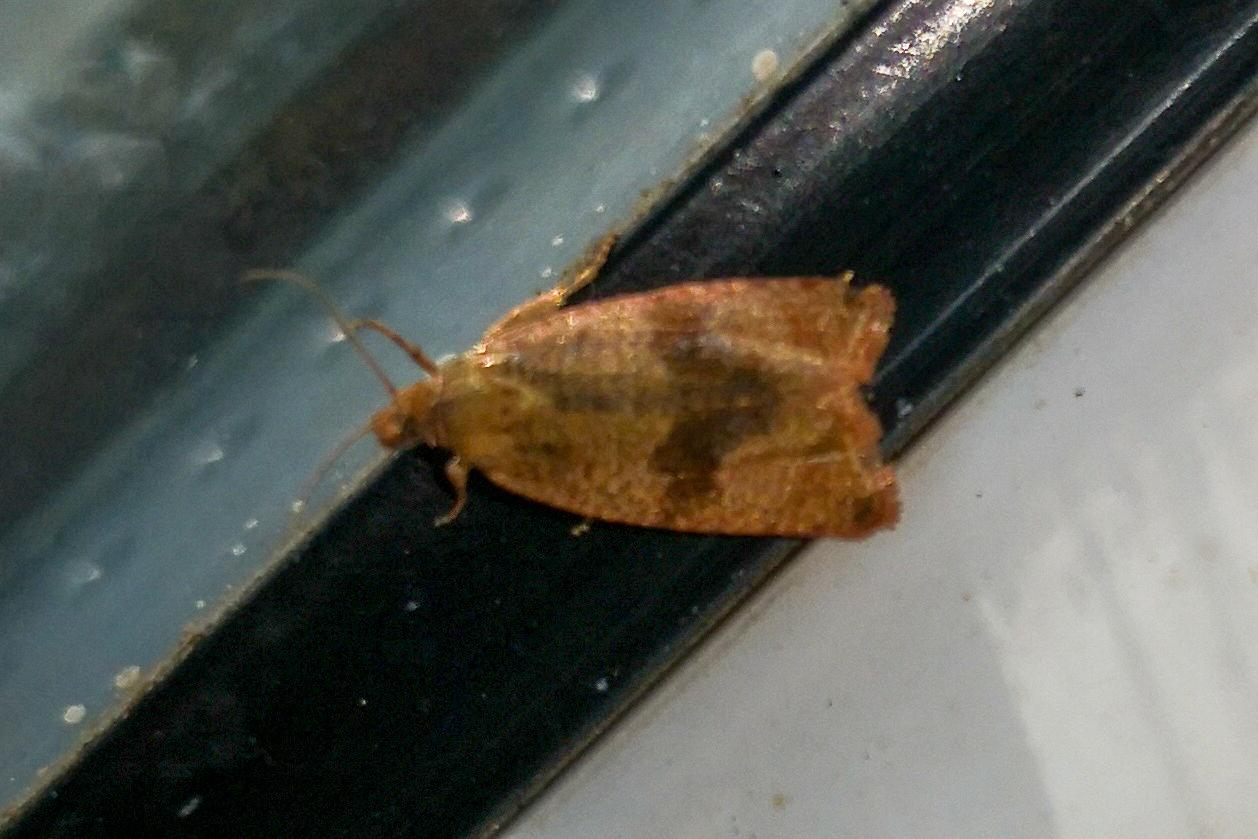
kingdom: Animalia
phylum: Arthropoda
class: Insecta
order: Lepidoptera
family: Tortricidae
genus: Celypha
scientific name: Celypha striana
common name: Barred marble
